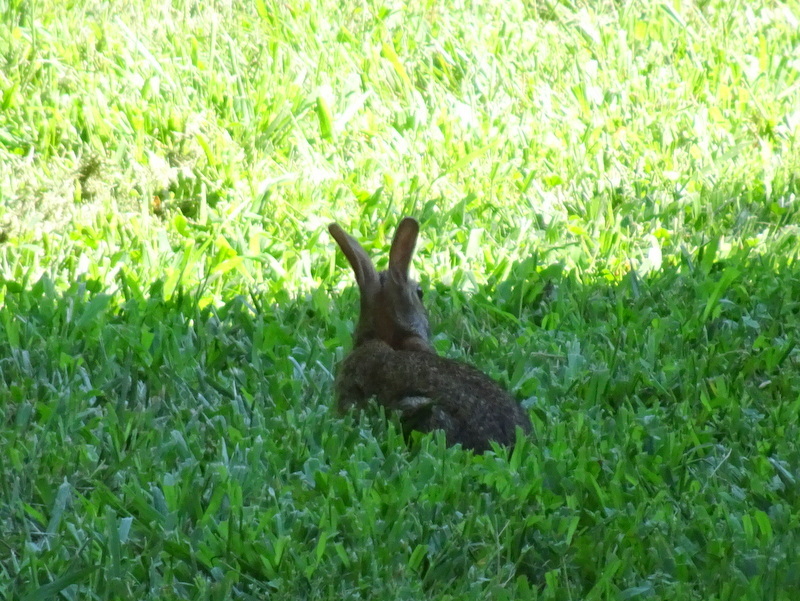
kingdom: Animalia
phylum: Chordata
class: Mammalia
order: Lagomorpha
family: Leporidae
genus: Sylvilagus
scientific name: Sylvilagus floridanus
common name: Eastern cottontail
